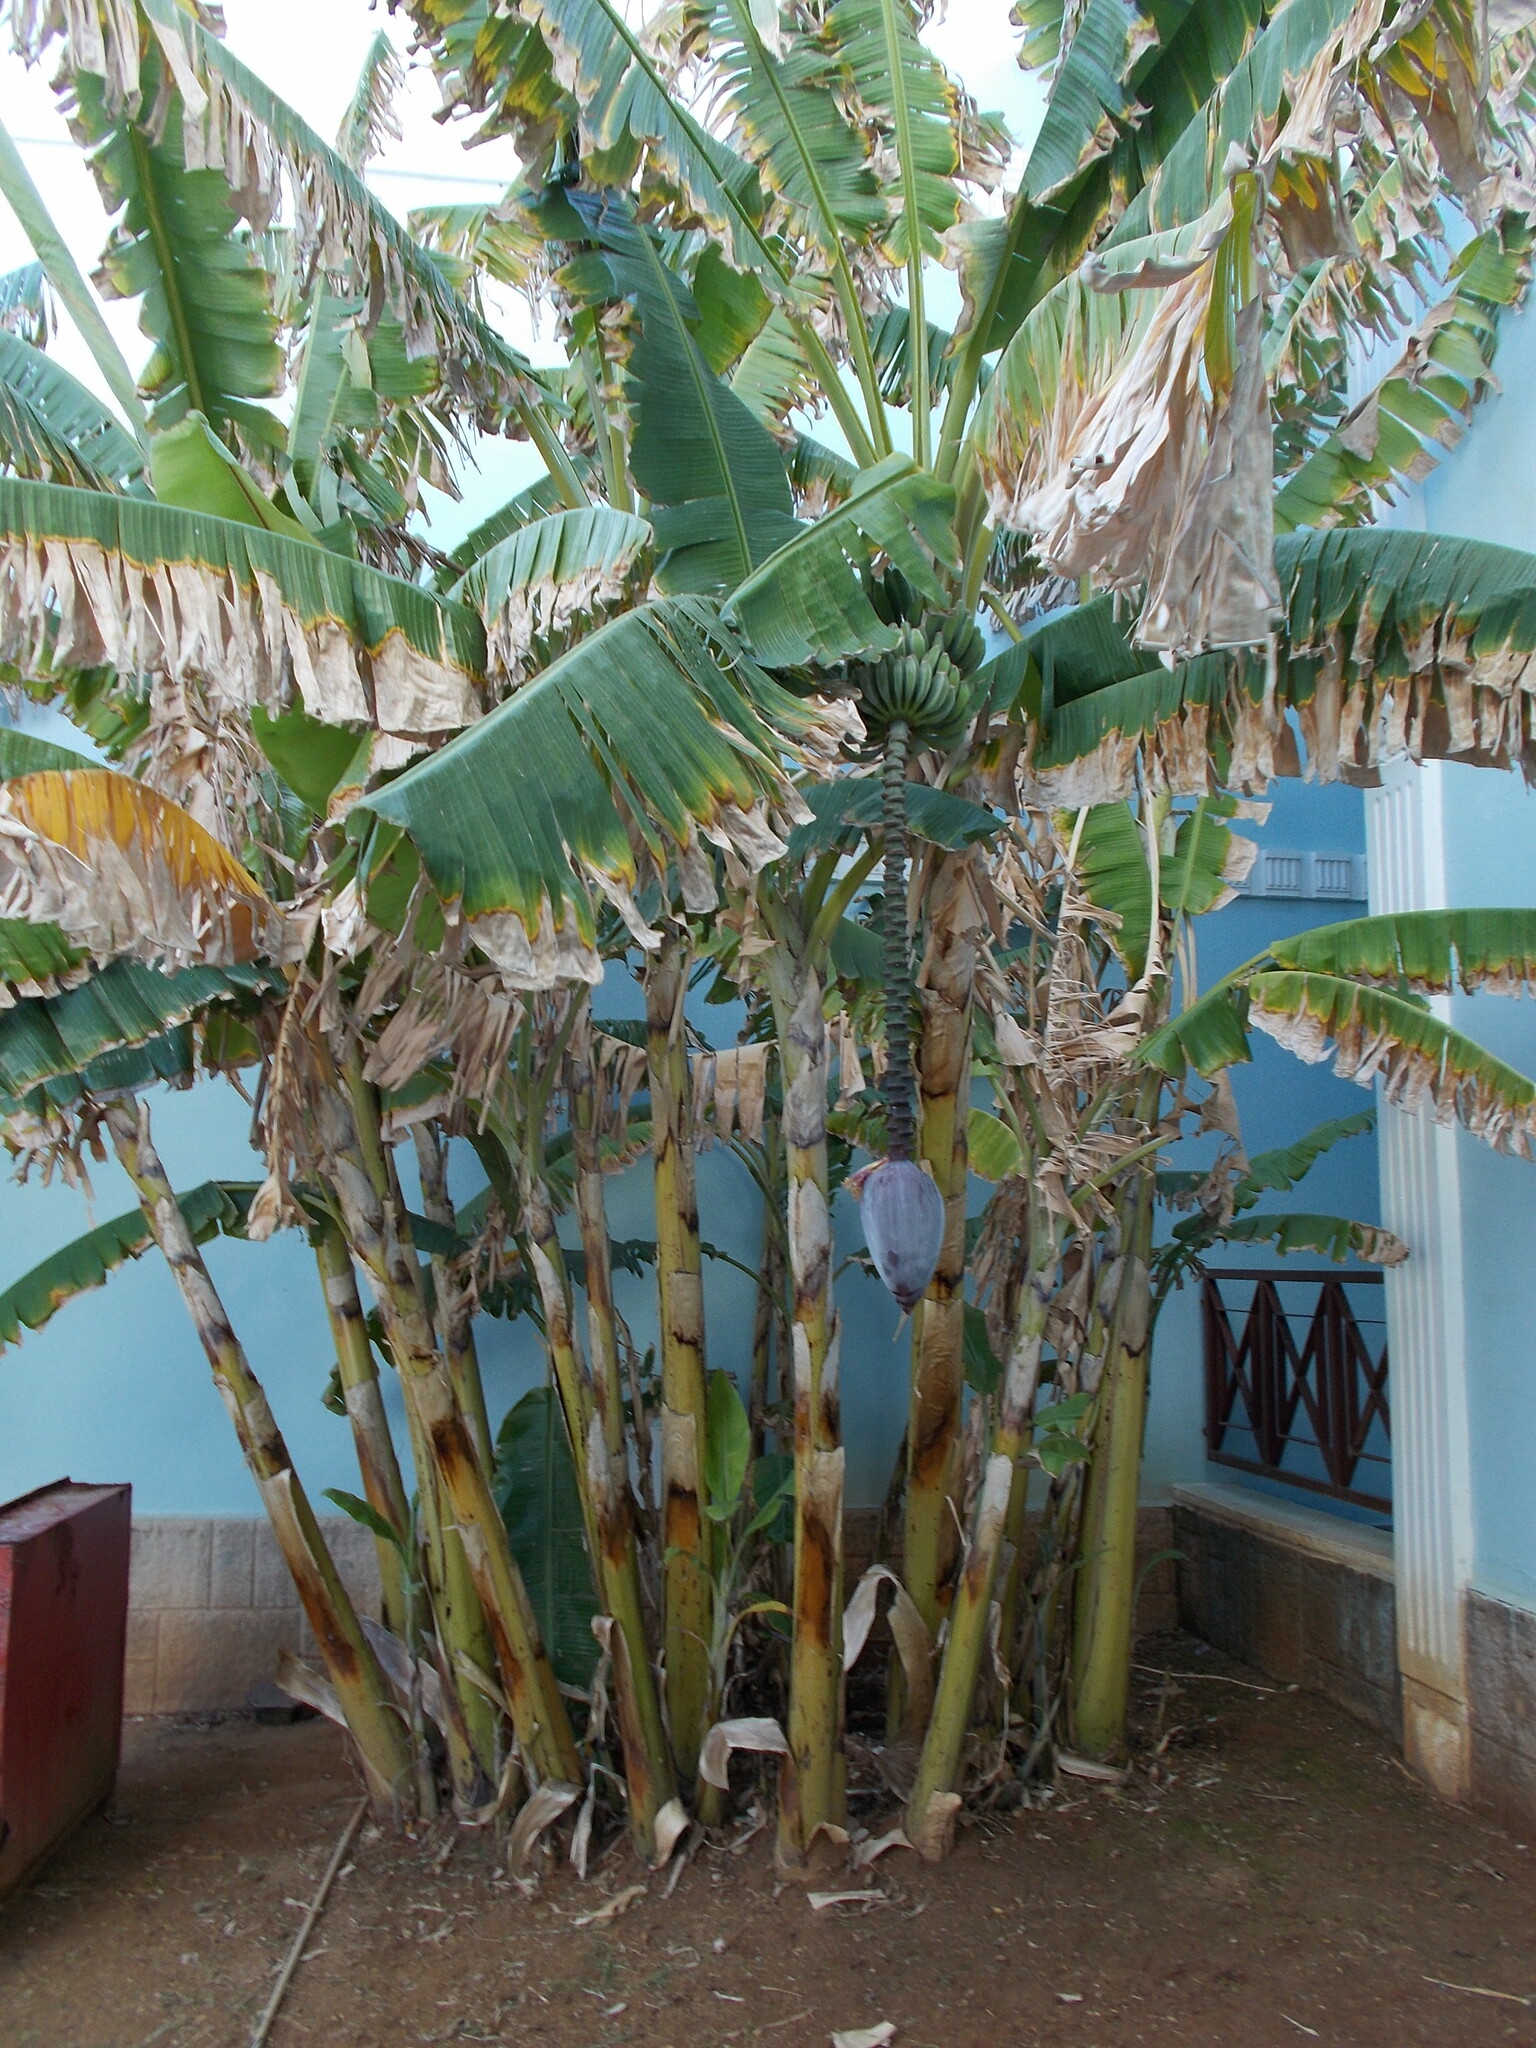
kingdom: Plantae
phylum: Tracheophyta
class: Liliopsida
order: Zingiberales
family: Musaceae
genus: Musa
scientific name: Musa paradisiaca
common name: French plantain
